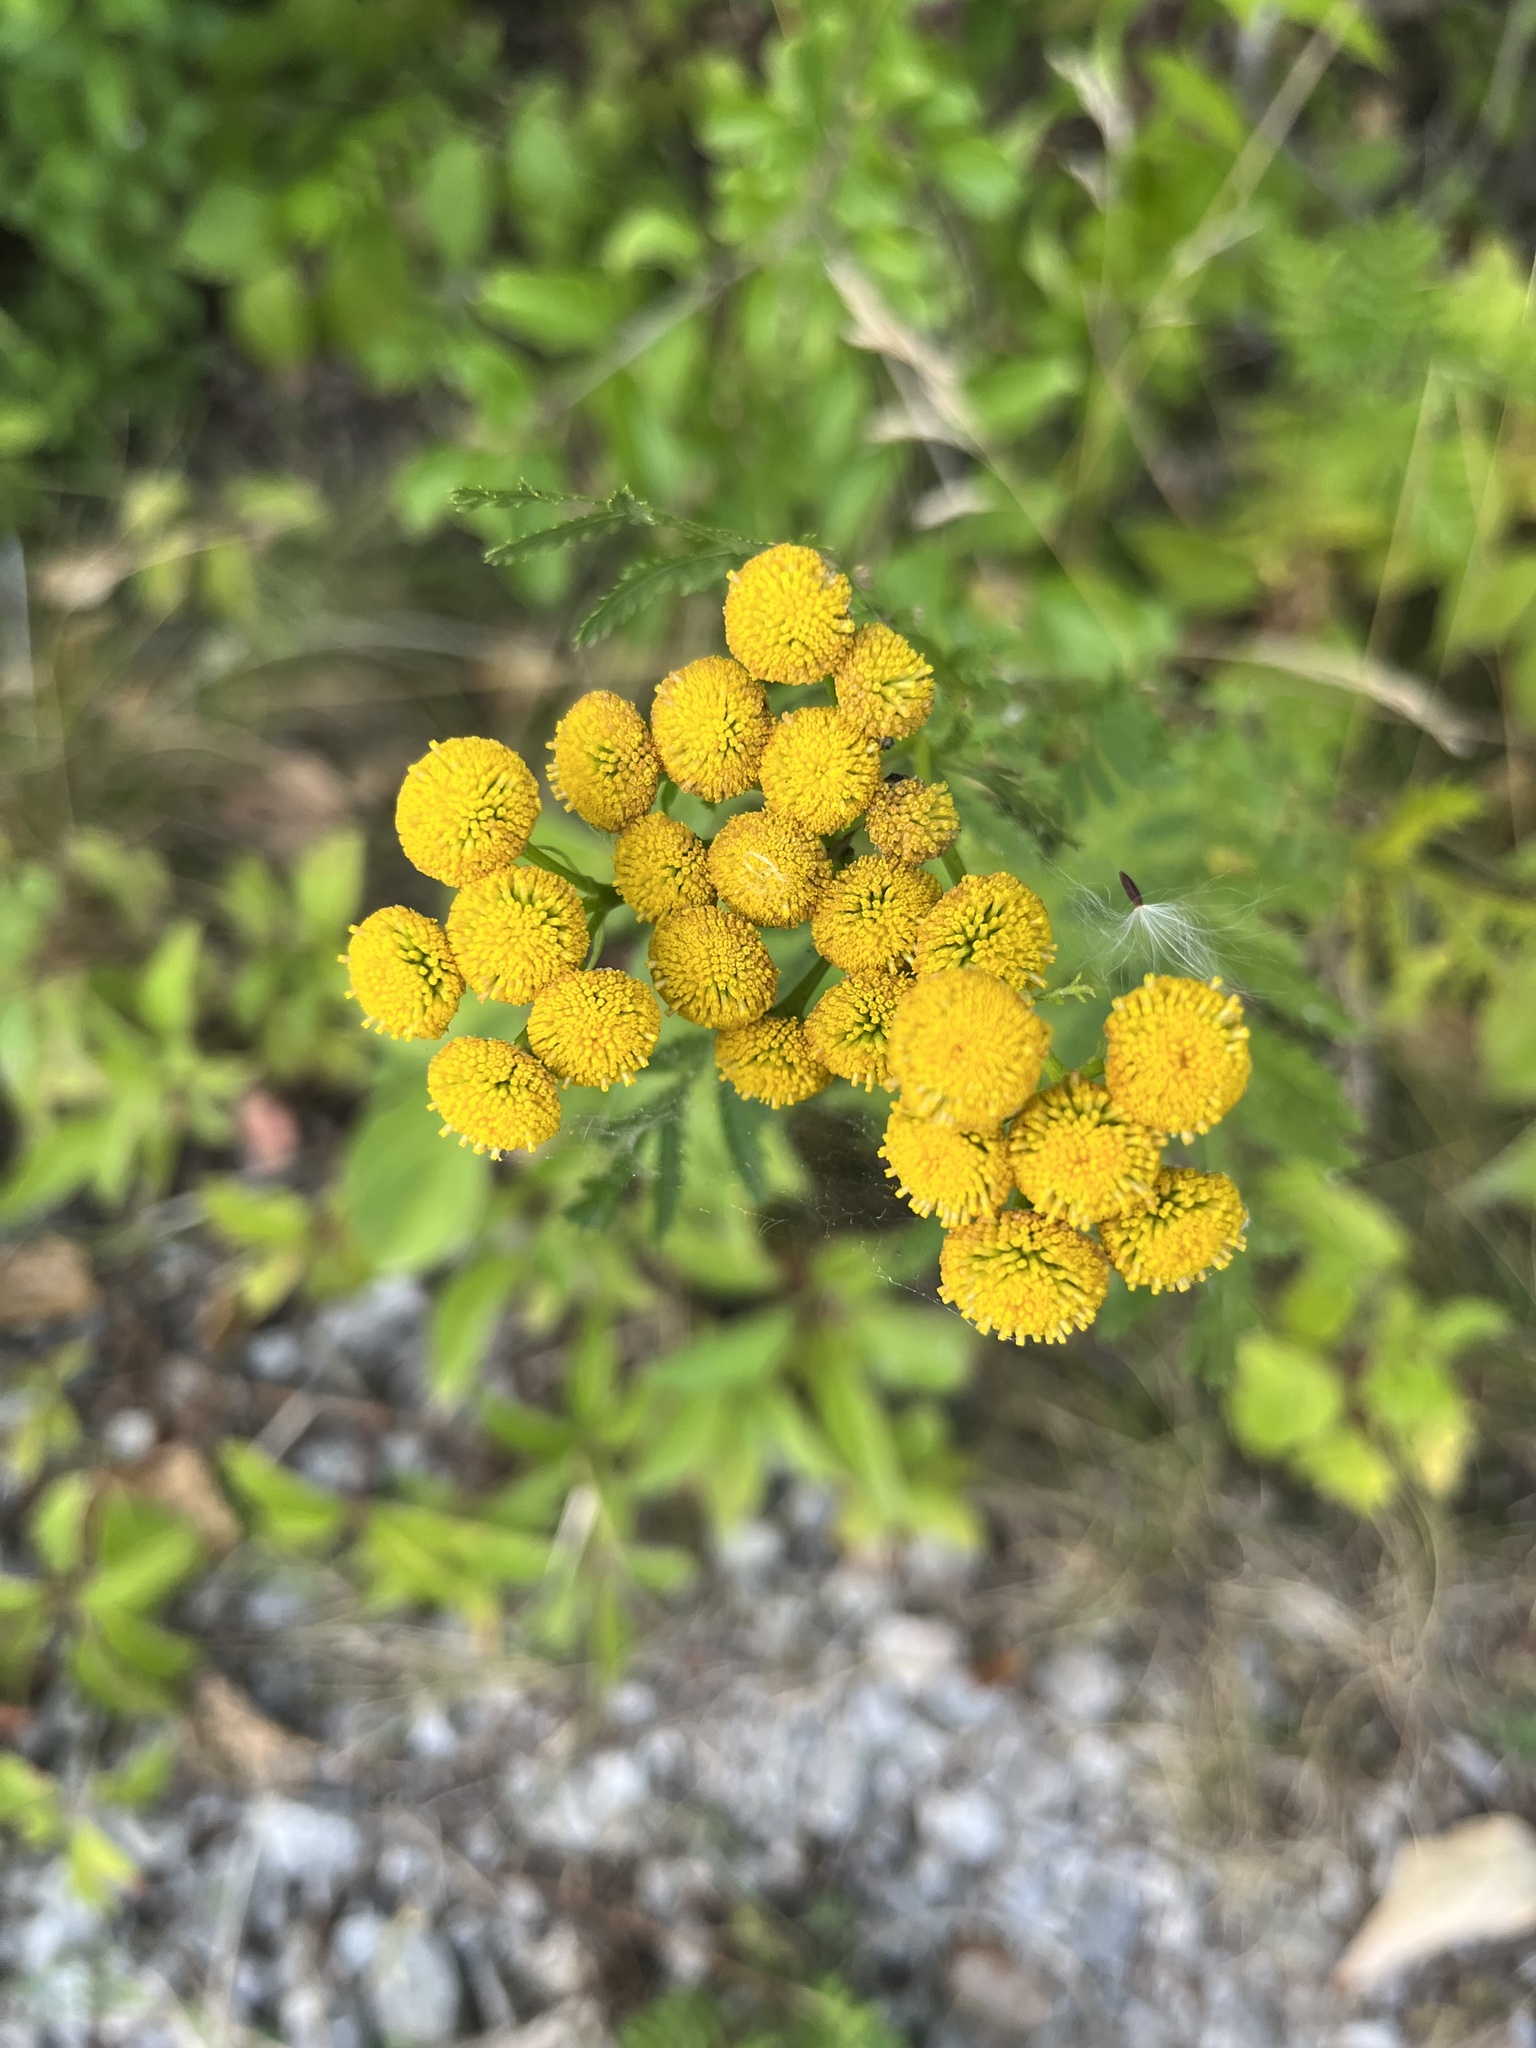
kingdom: Plantae
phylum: Tracheophyta
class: Magnoliopsida
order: Asterales
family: Asteraceae
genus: Tanacetum
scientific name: Tanacetum vulgare
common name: Common tansy
